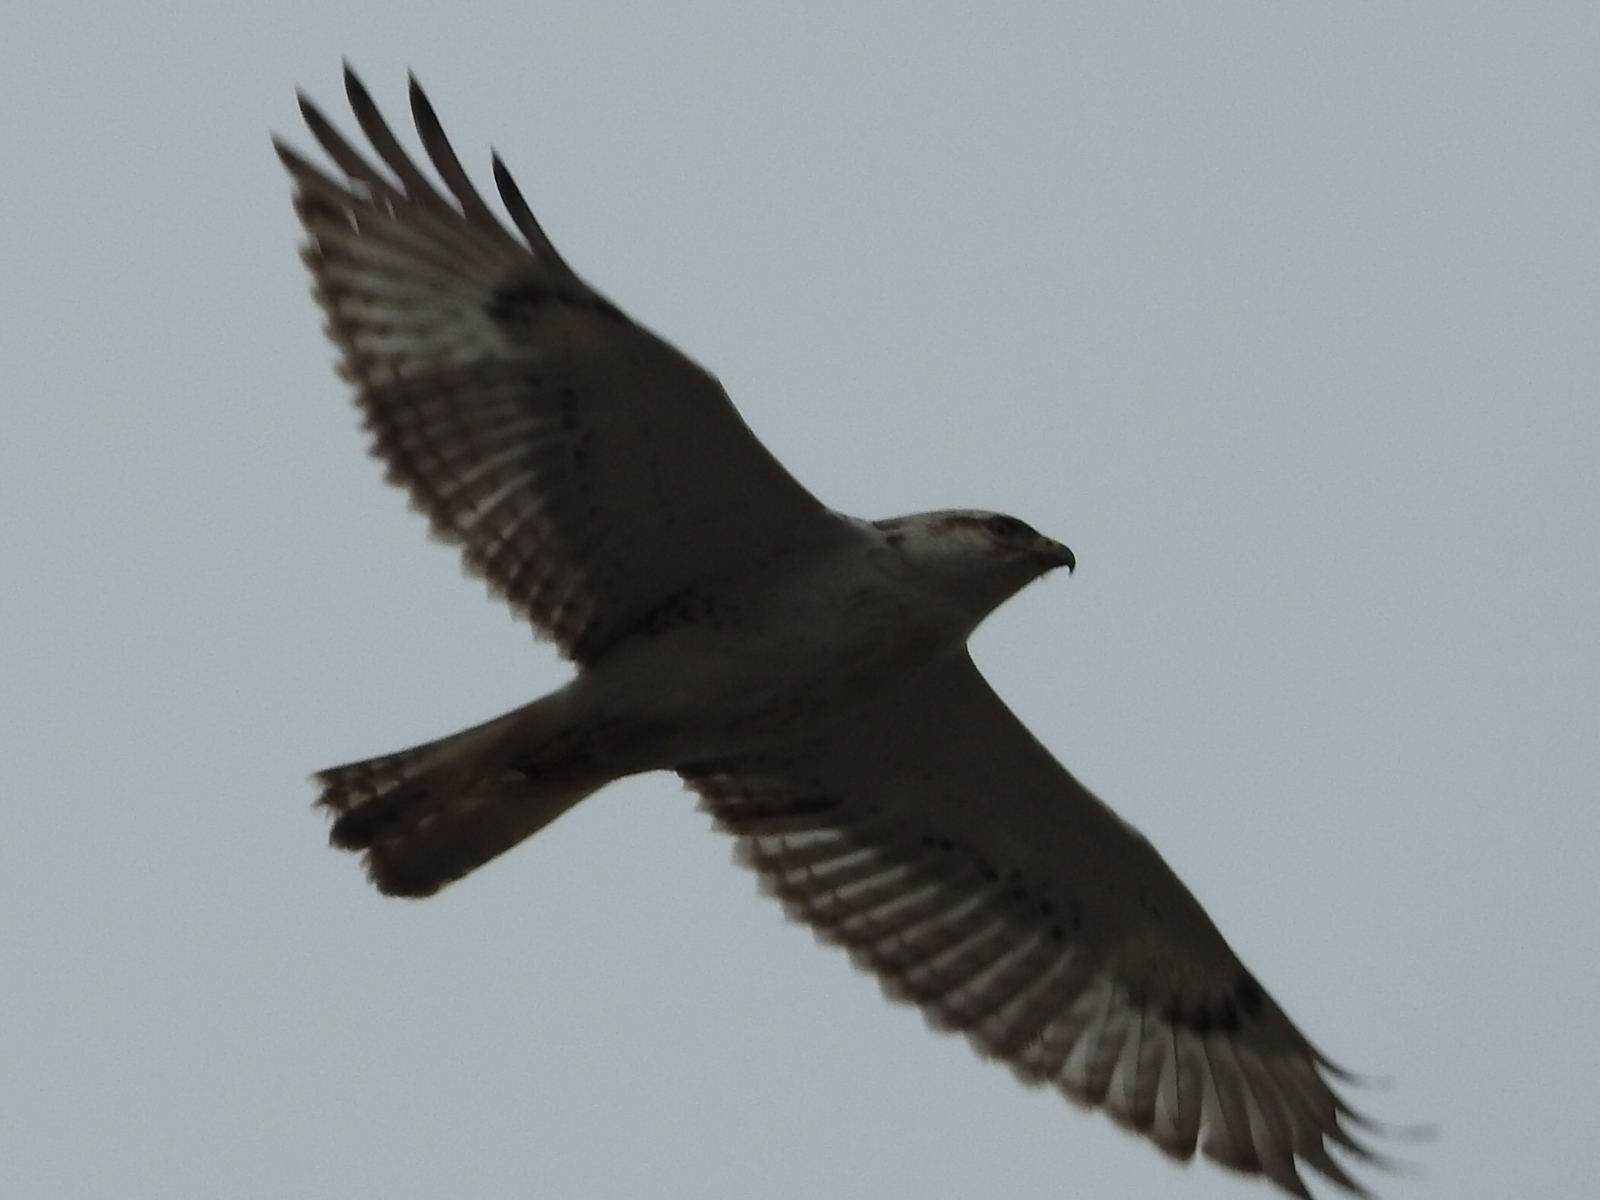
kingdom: Animalia
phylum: Chordata
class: Aves
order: Accipitriformes
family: Accipitridae
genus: Buteo
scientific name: Buteo regalis
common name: Ferruginous hawk
